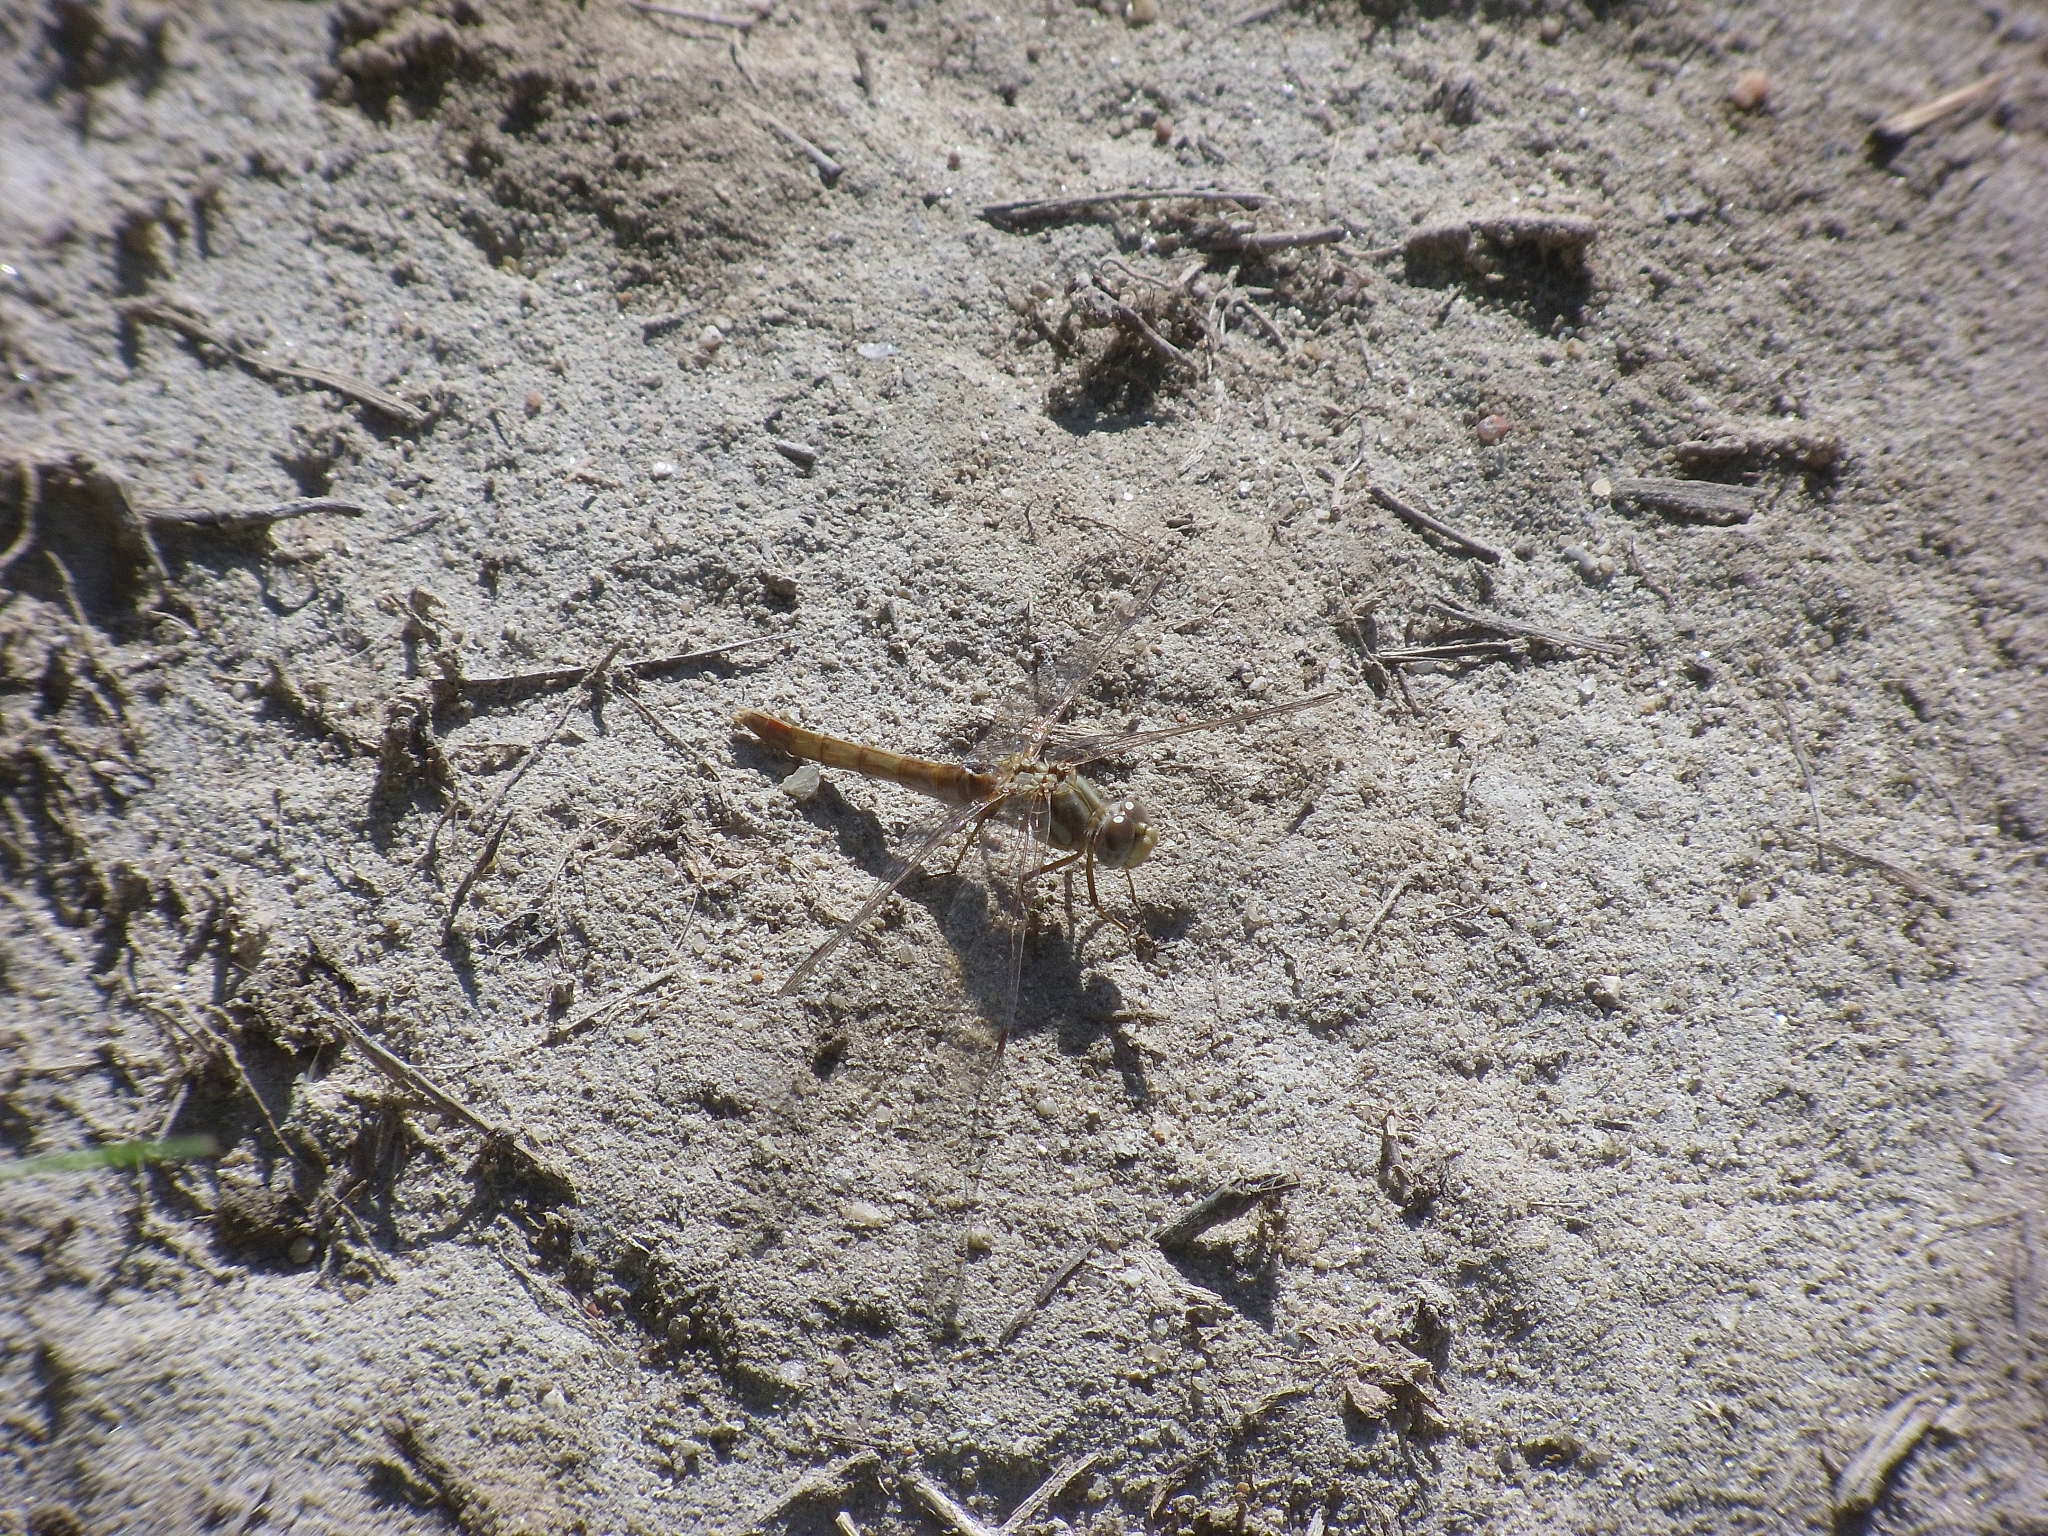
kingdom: Animalia
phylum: Arthropoda
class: Insecta
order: Odonata
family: Libellulidae
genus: Sympetrum
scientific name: Sympetrum pallipes
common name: Striped meadowhawk
